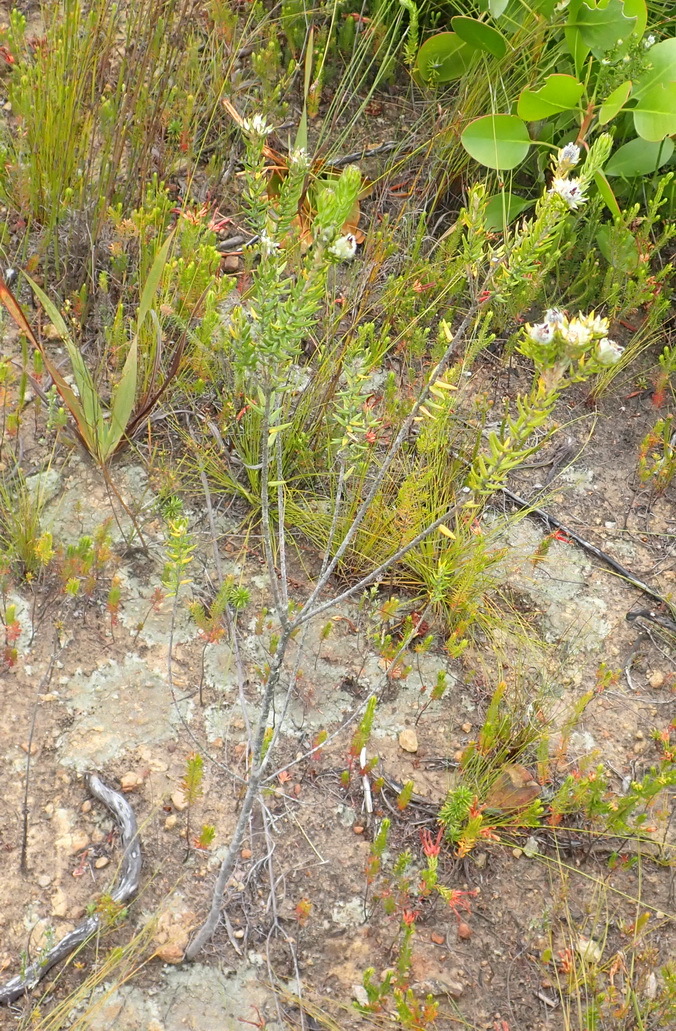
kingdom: Plantae
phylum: Tracheophyta
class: Magnoliopsida
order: Rosales
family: Rhamnaceae
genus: Phylica
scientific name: Phylica purpurea
